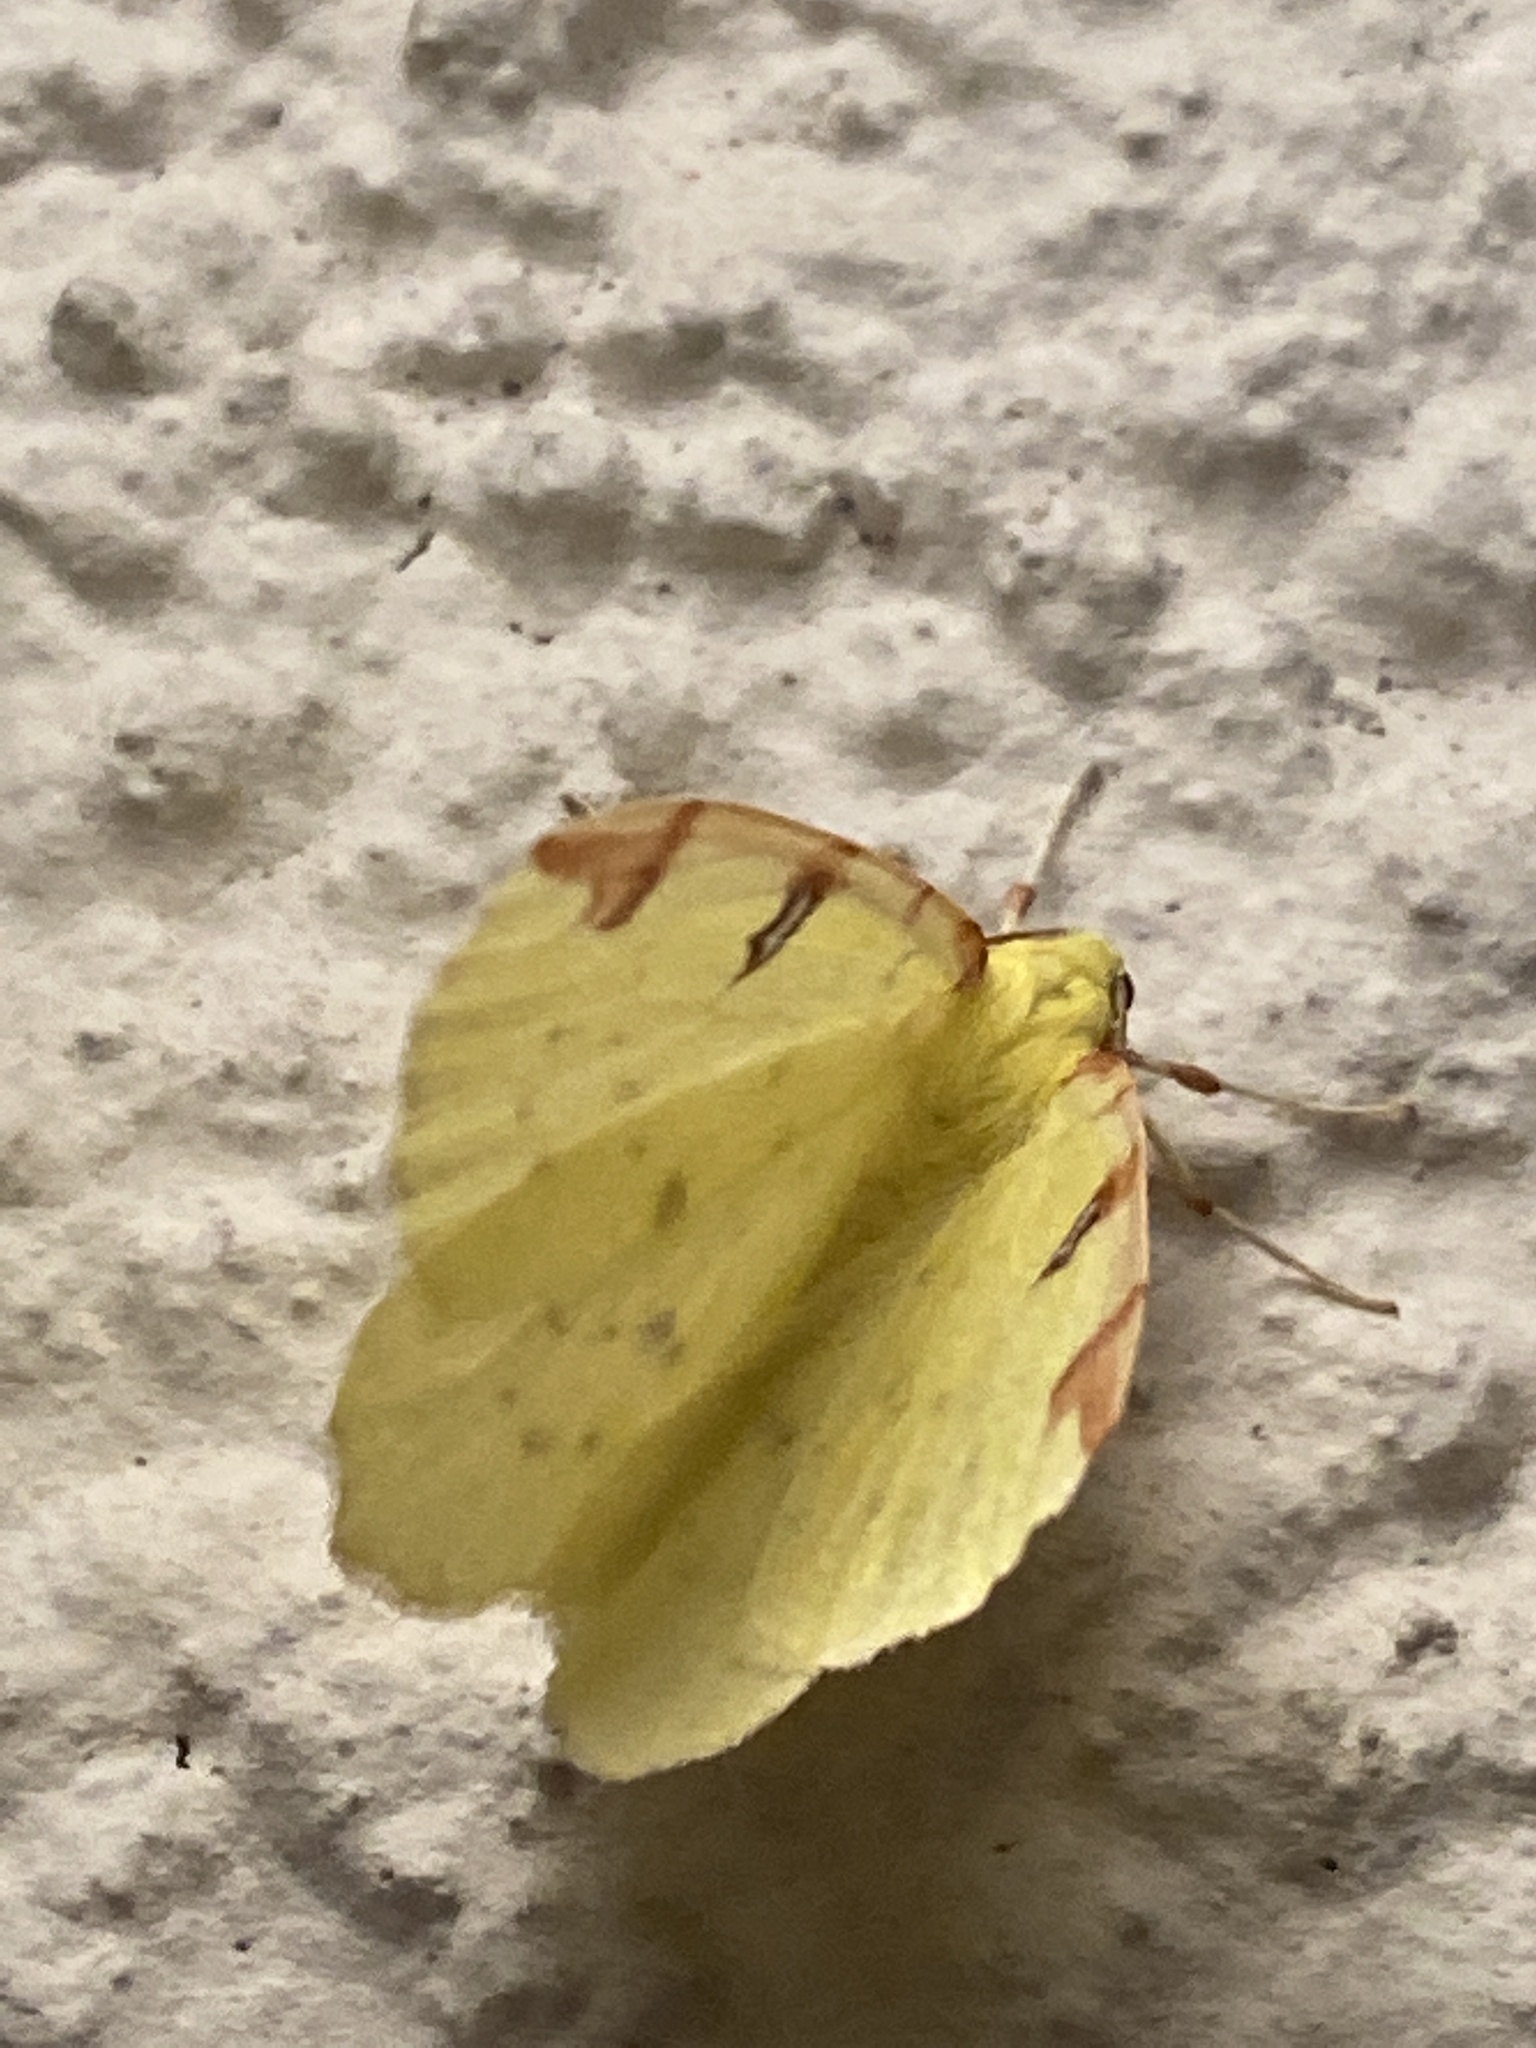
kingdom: Animalia
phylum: Arthropoda
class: Insecta
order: Lepidoptera
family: Geometridae
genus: Opisthograptis
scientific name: Opisthograptis luteolata
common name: Brimstone moth
